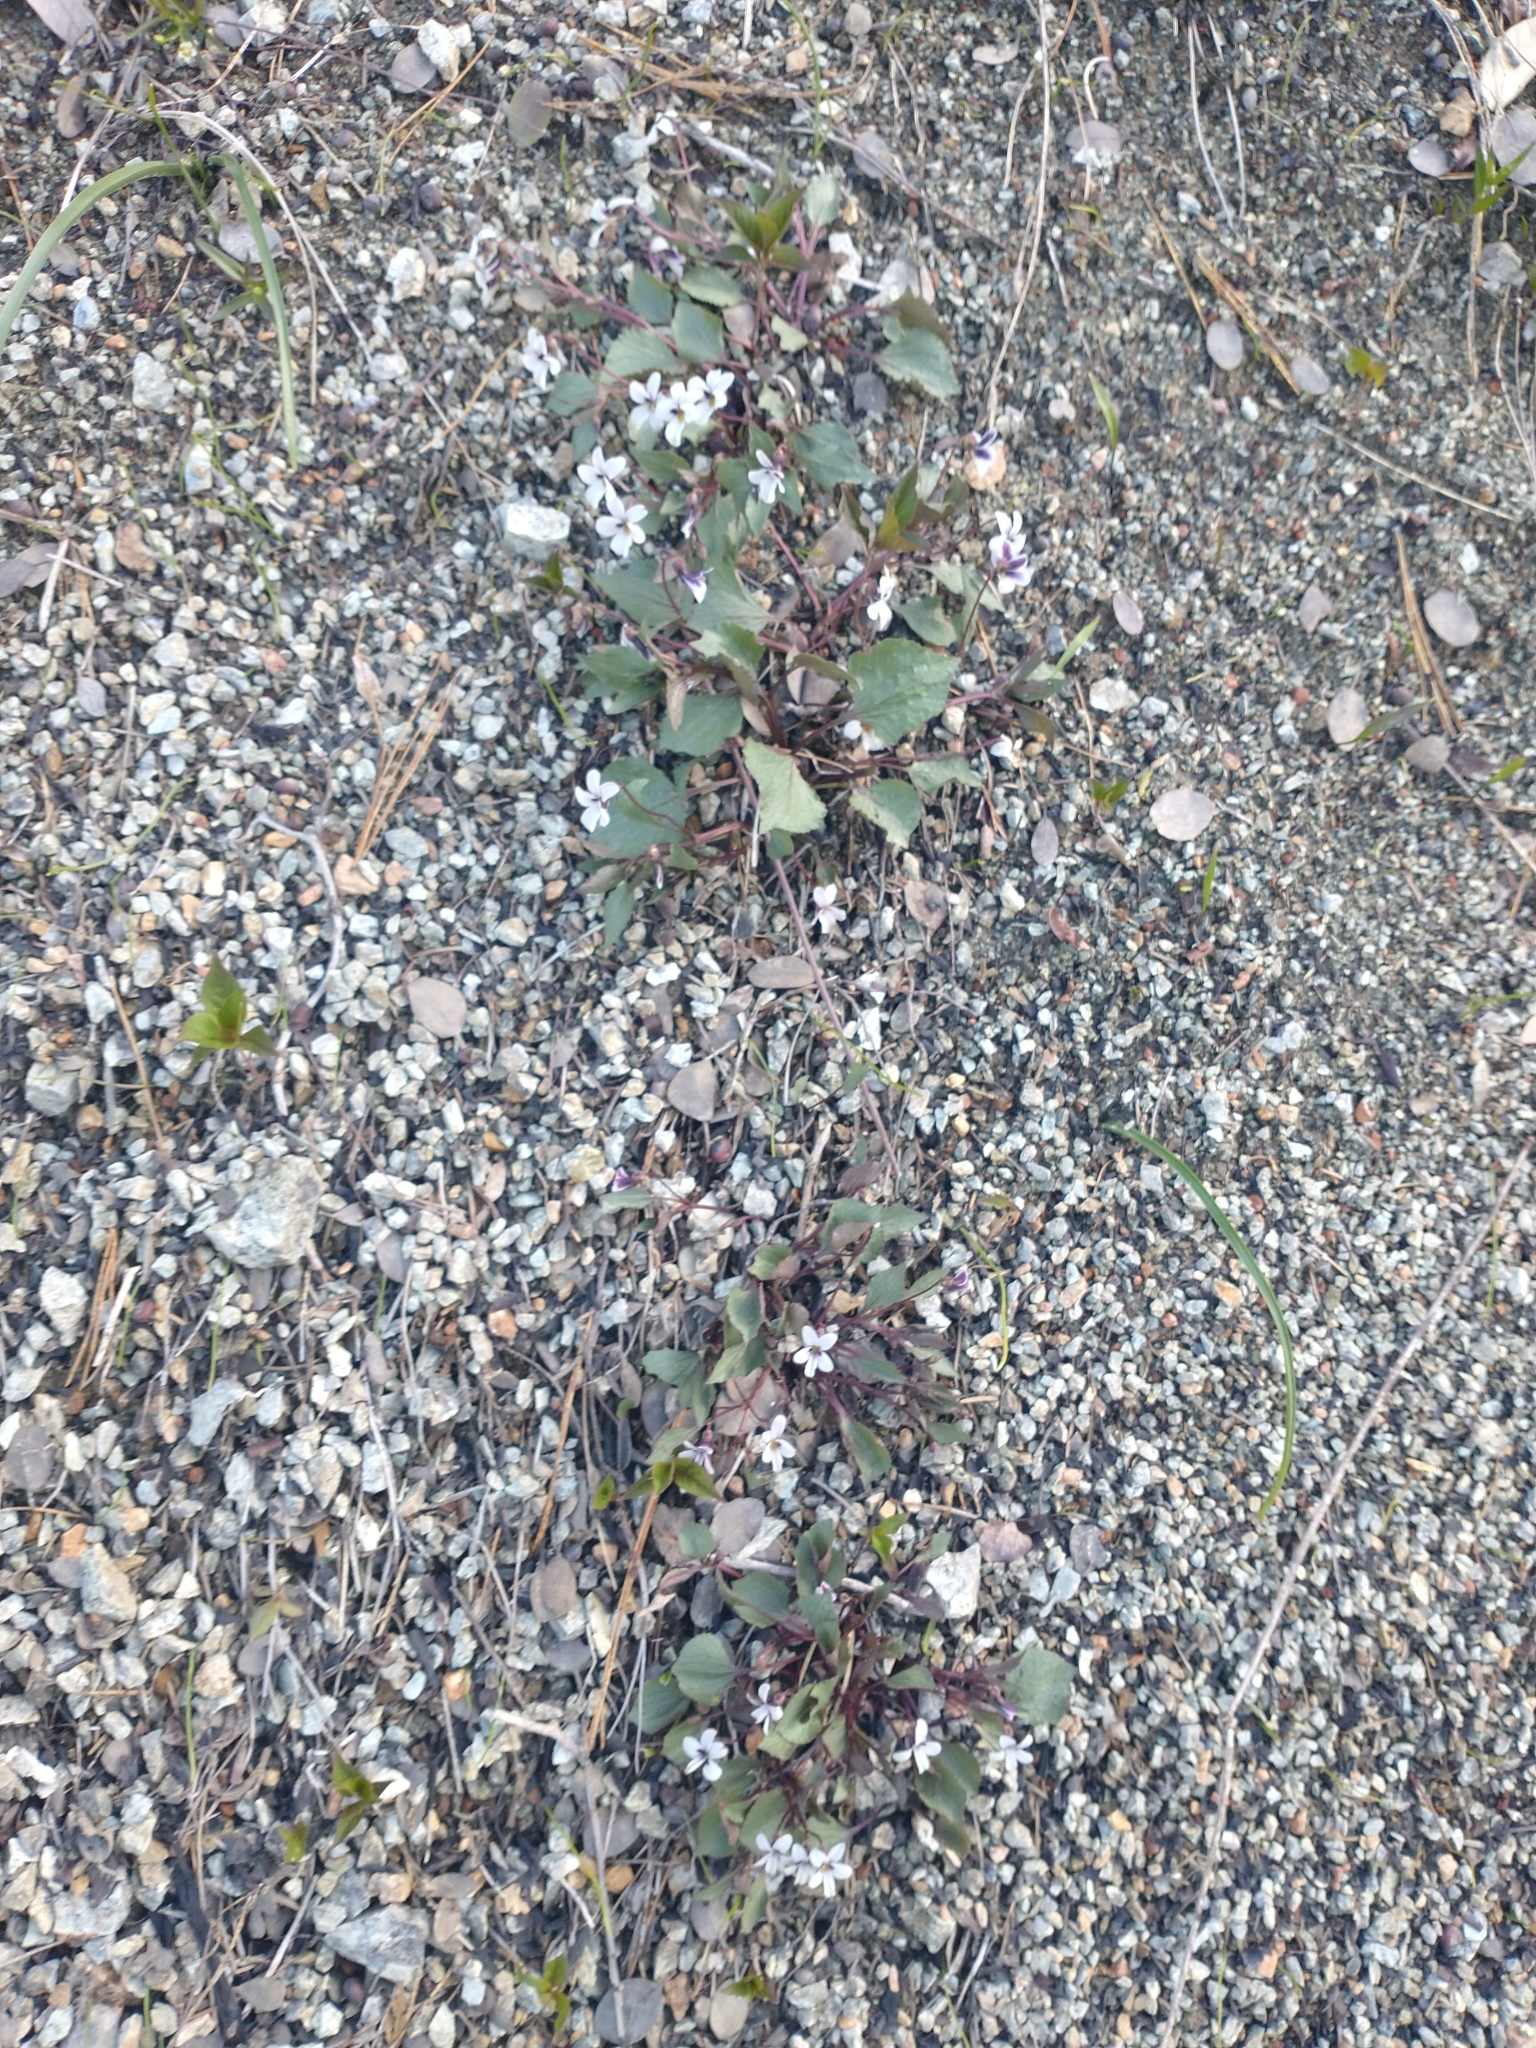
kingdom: Plantae
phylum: Tracheophyta
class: Magnoliopsida
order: Malpighiales
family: Violaceae
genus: Viola
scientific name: Viola cuneata
